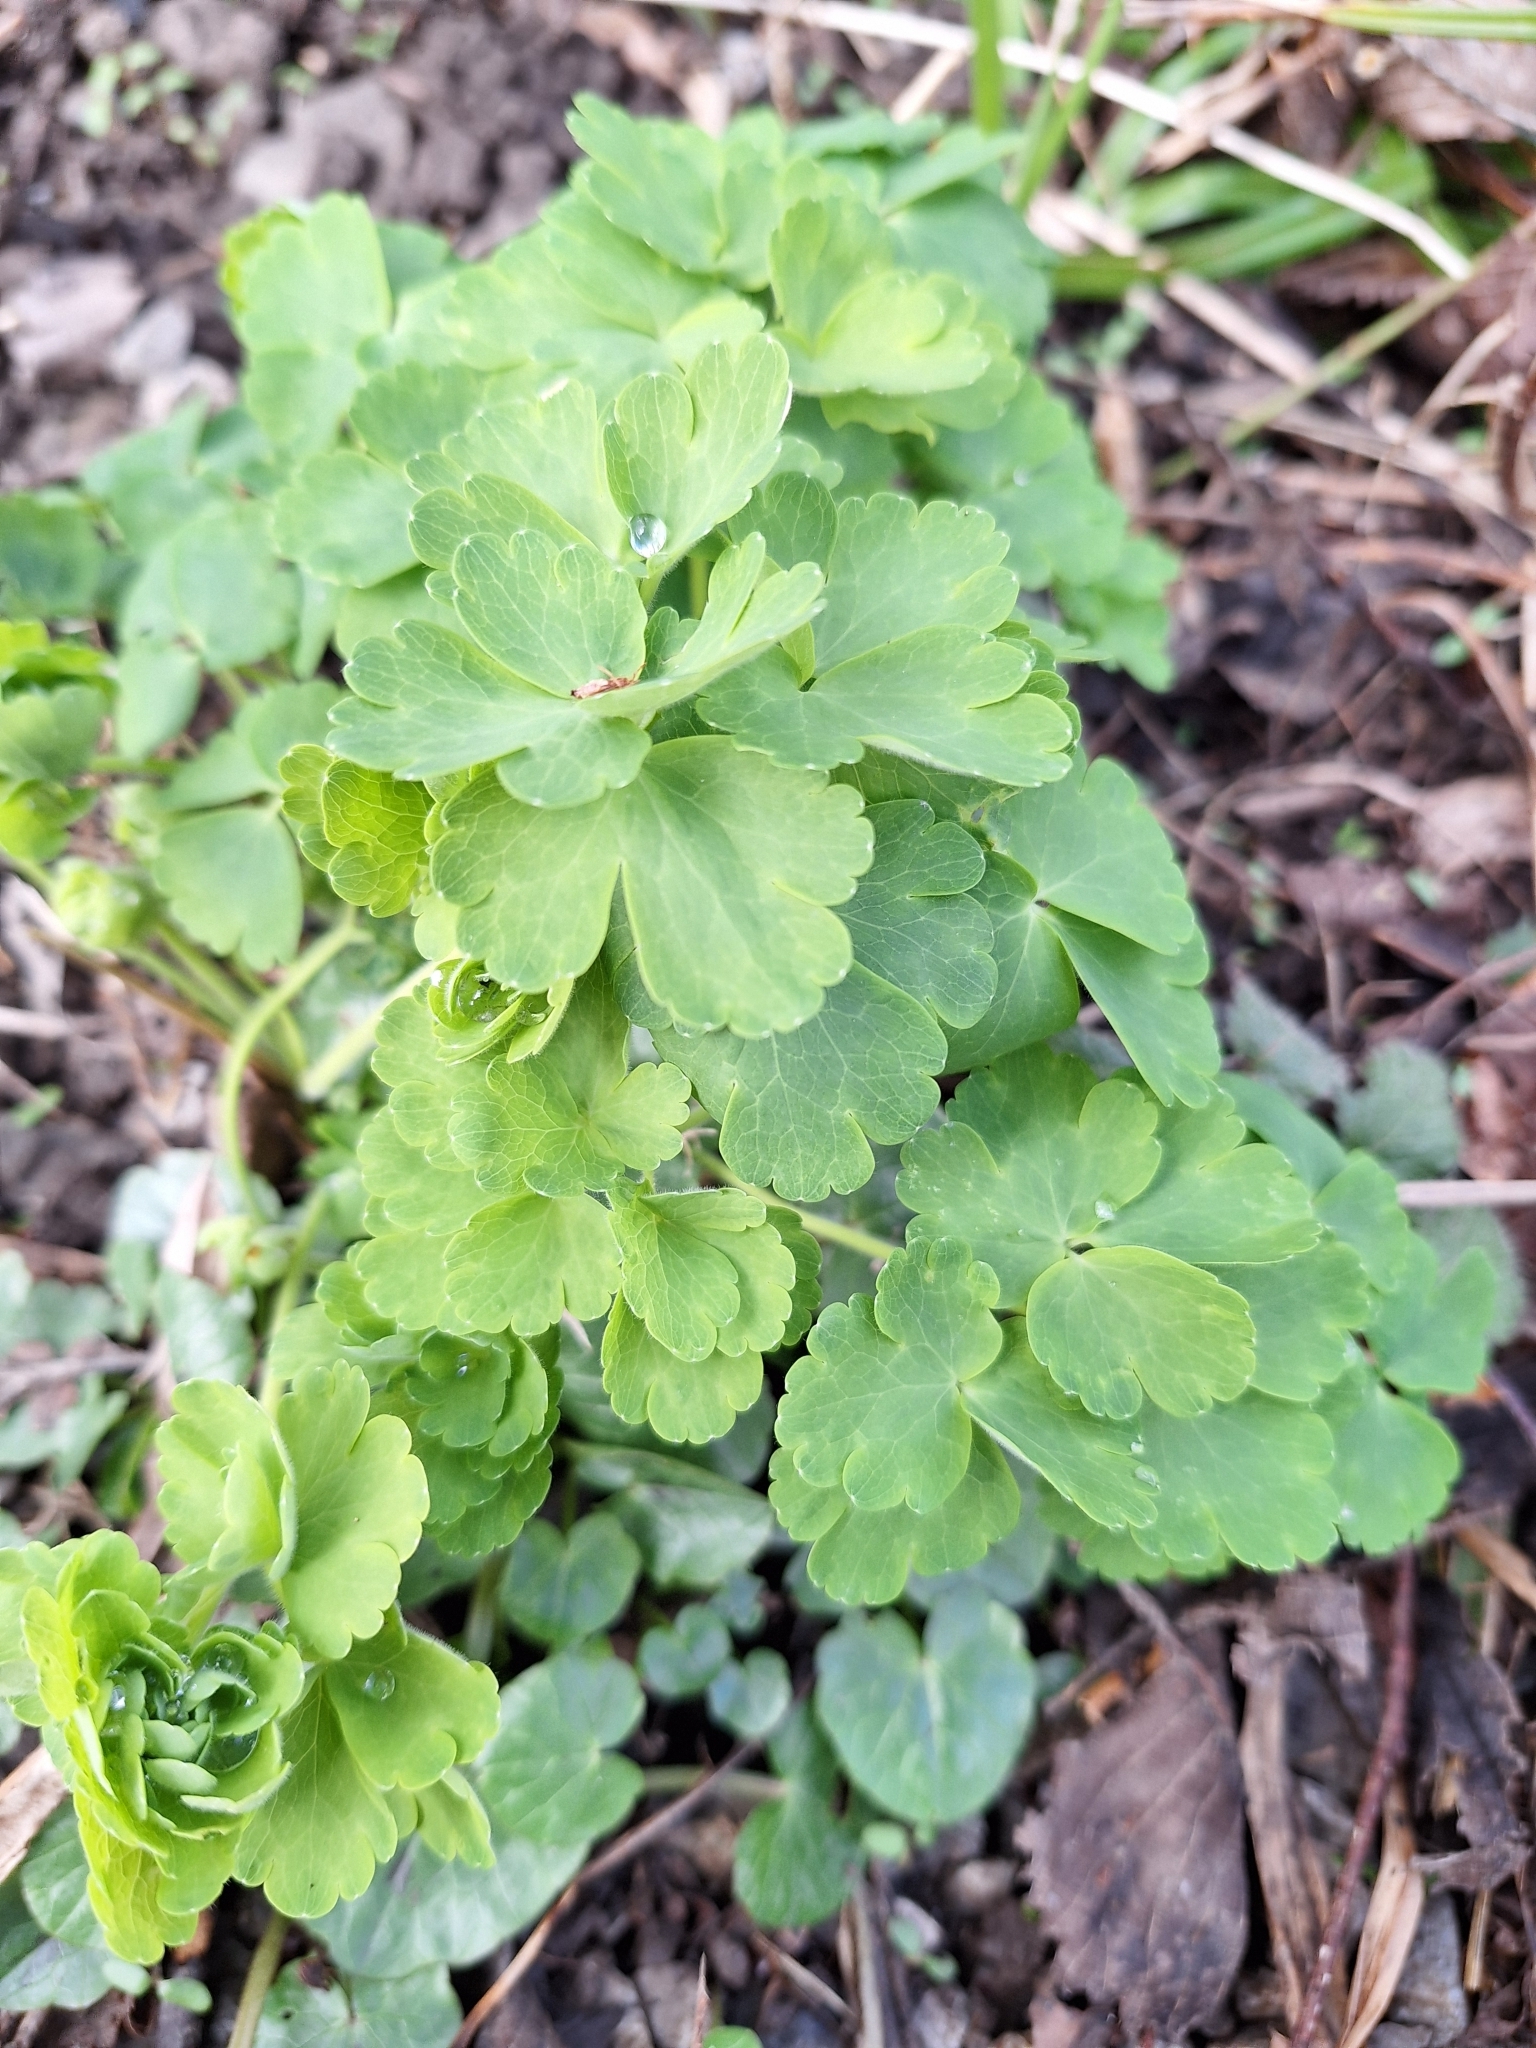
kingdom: Plantae
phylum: Tracheophyta
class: Magnoliopsida
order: Ranunculales
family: Ranunculaceae
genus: Aquilegia
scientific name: Aquilegia vulgaris
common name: Columbine
